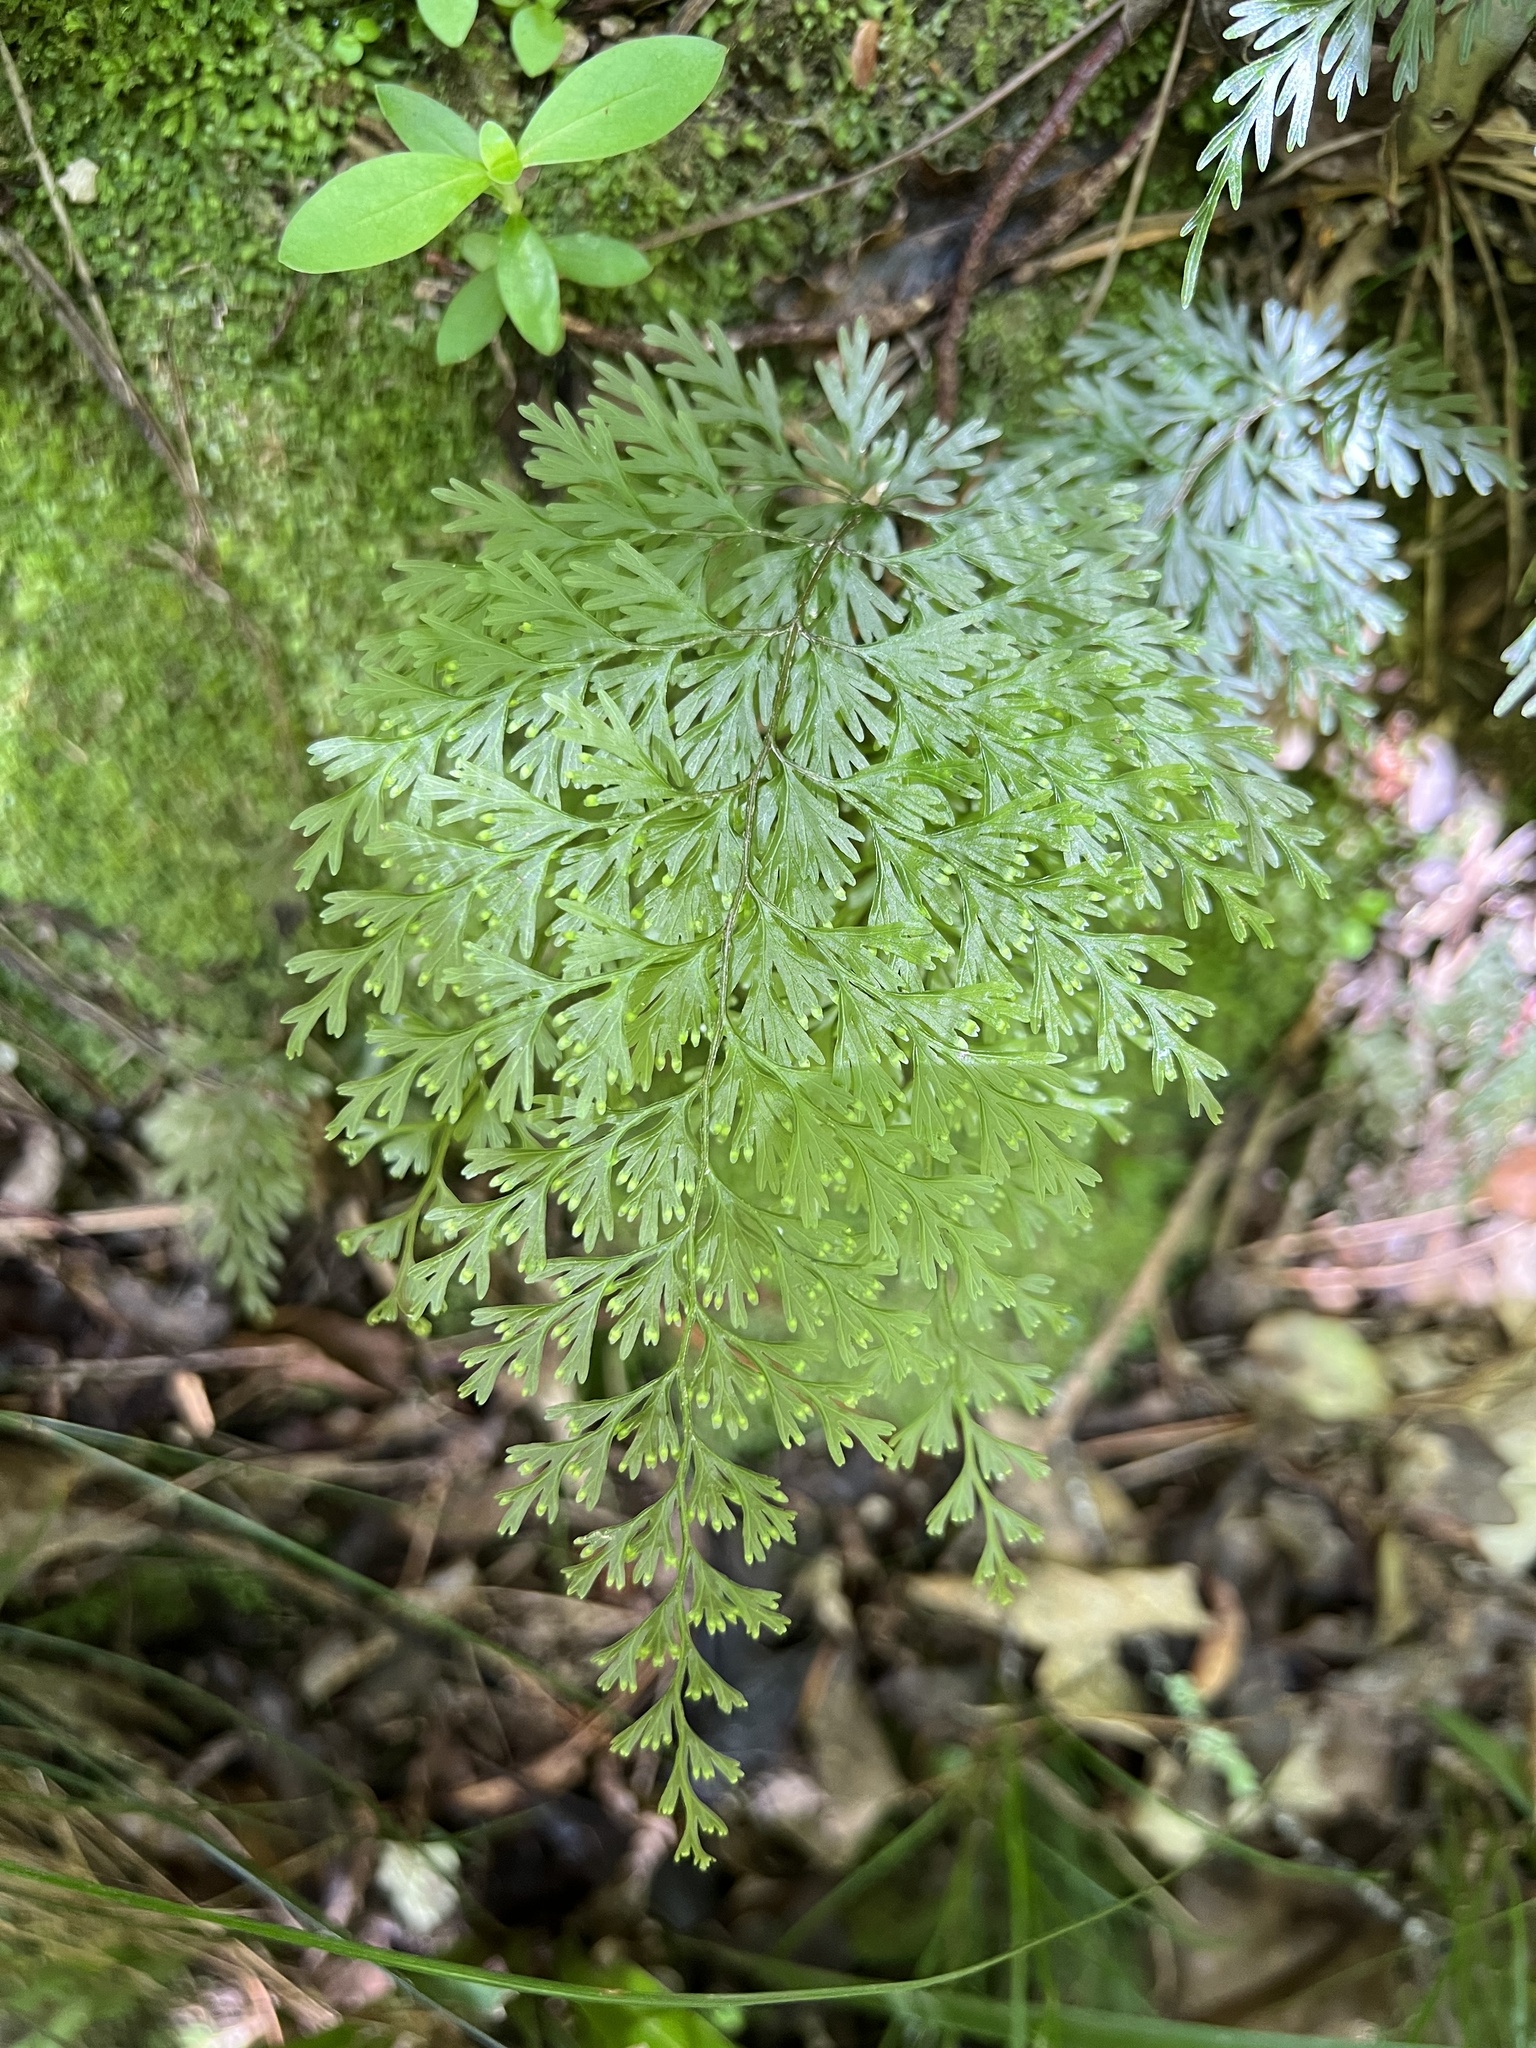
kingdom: Plantae
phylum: Tracheophyta
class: Polypodiopsida
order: Hymenophyllales
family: Hymenophyllaceae
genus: Hymenophyllum
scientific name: Hymenophyllum demissum
